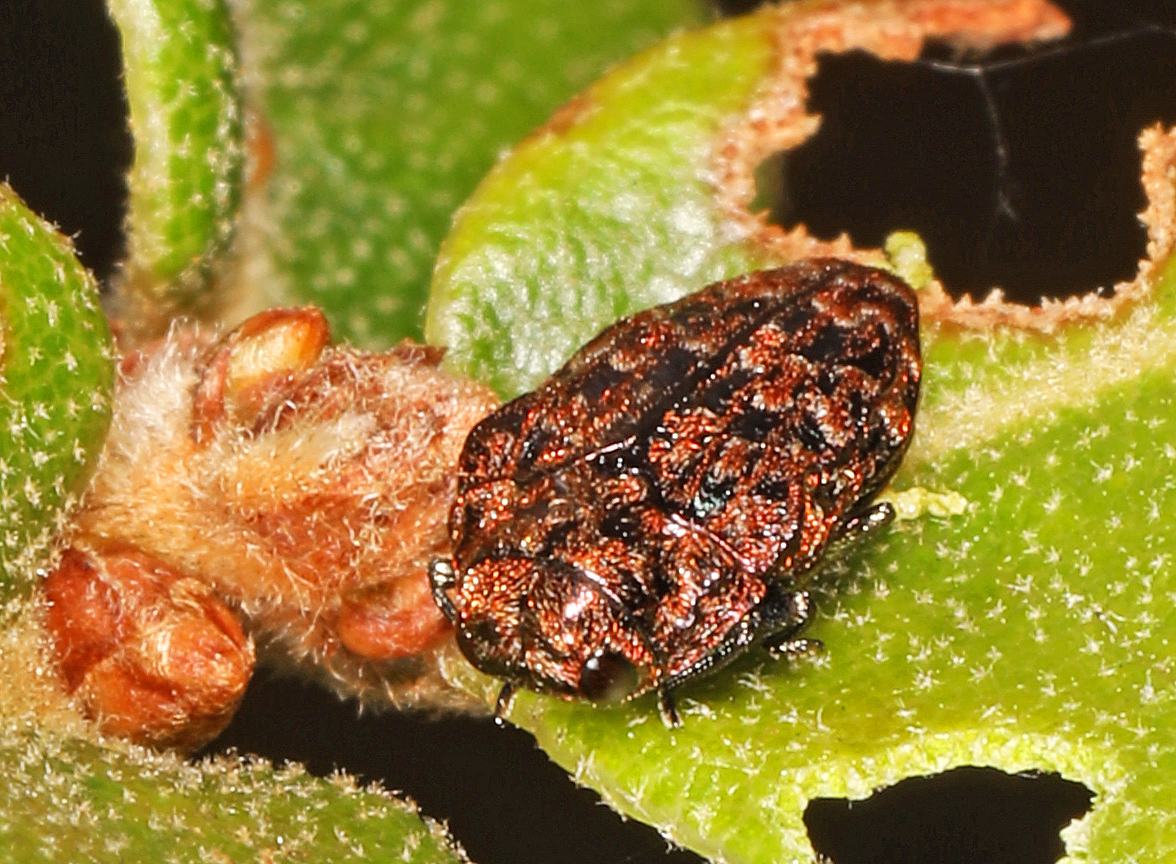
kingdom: Animalia
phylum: Arthropoda
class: Insecta
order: Coleoptera
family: Buprestidae
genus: Brachys
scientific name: Brachys floricolus
